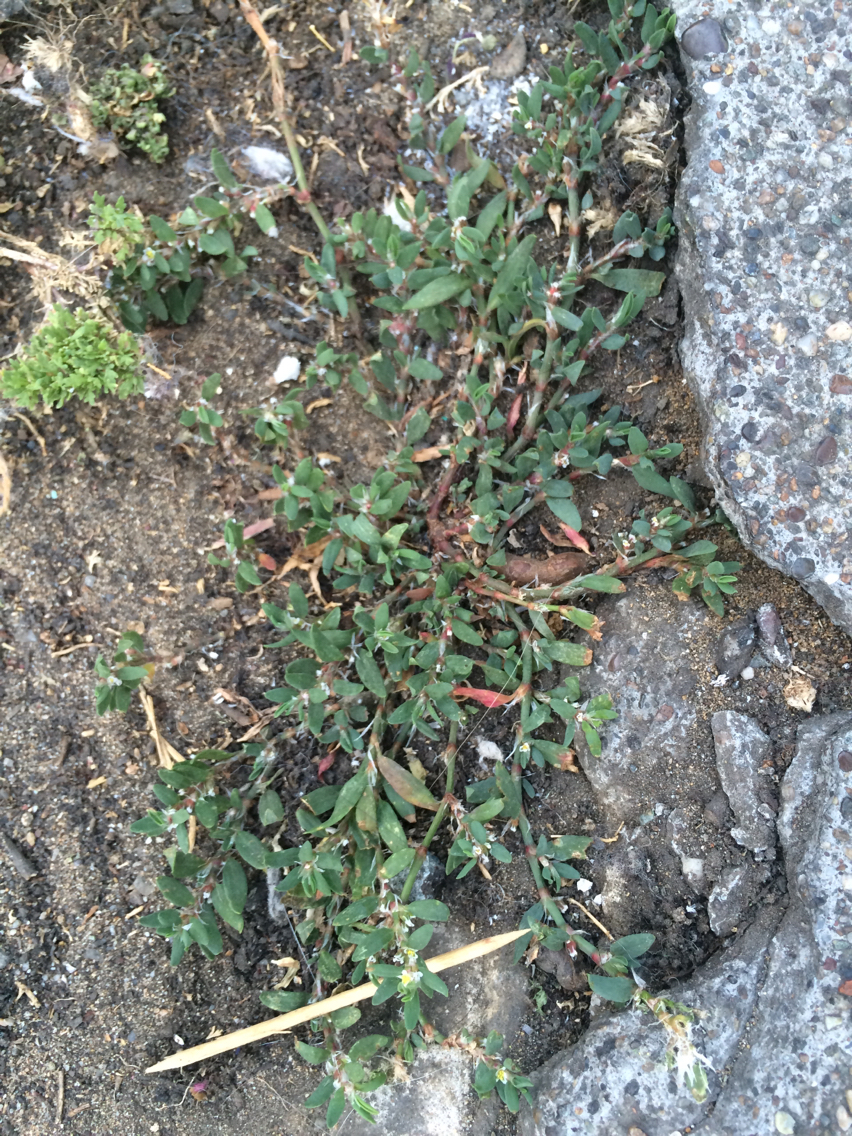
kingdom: Plantae
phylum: Tracheophyta
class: Magnoliopsida
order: Caryophyllales
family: Polygonaceae
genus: Polygonum
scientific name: Polygonum aviculare
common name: Prostrate knotweed
